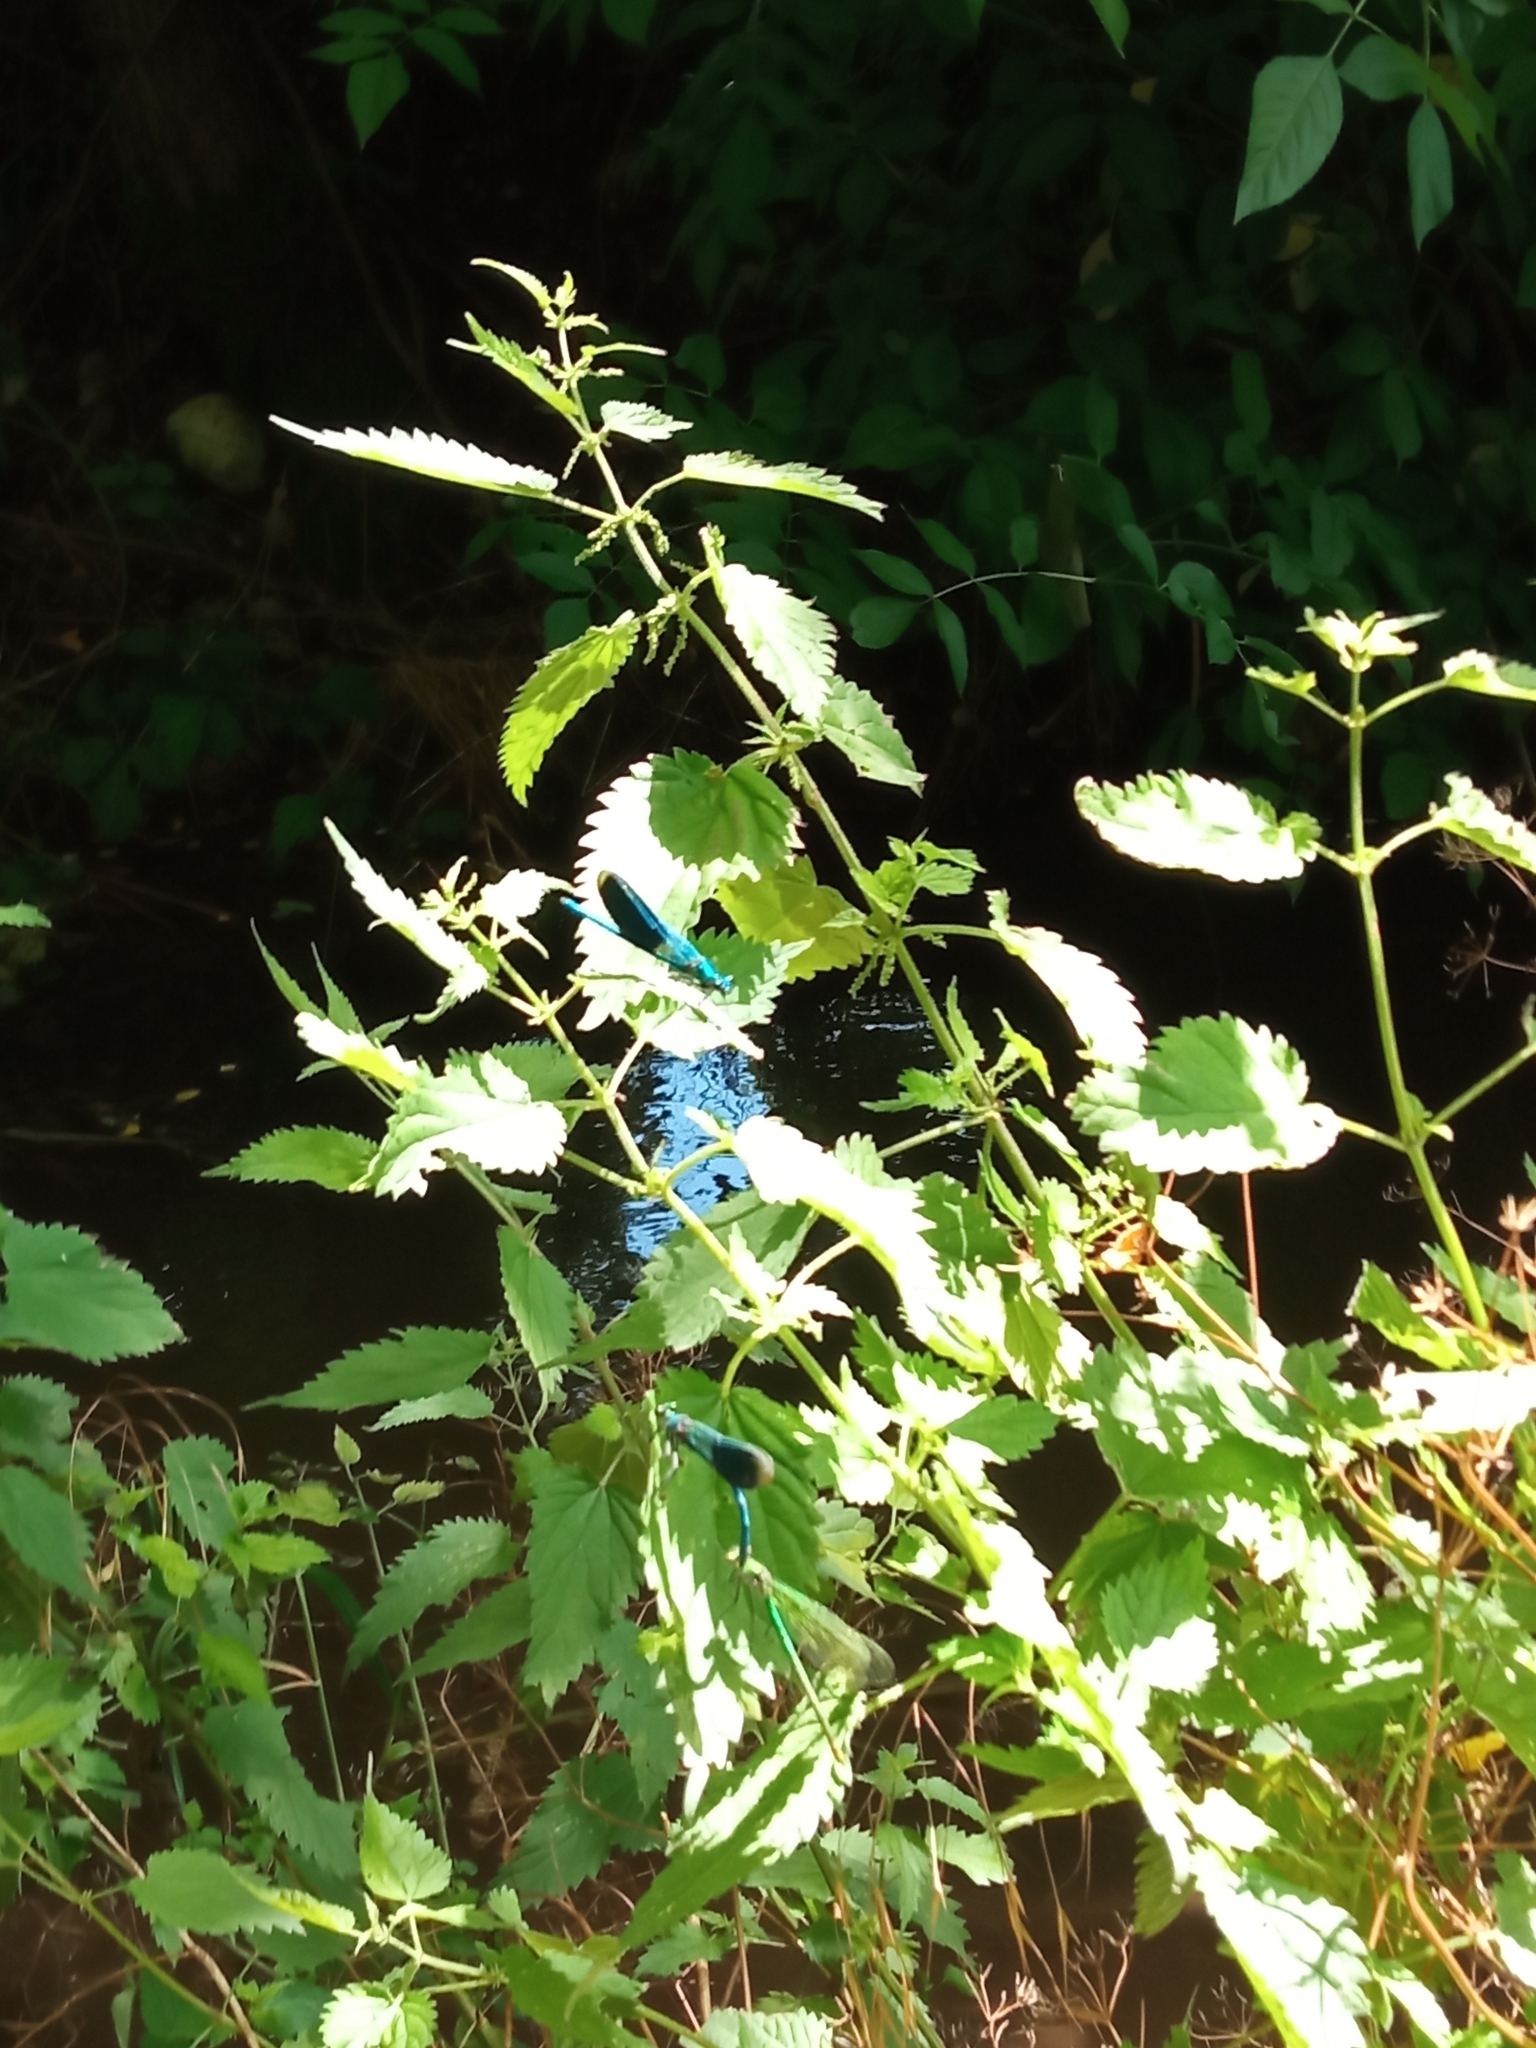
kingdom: Animalia
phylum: Arthropoda
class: Insecta
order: Odonata
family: Calopterygidae
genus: Calopteryx
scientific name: Calopteryx splendens
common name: Banded demoiselle
